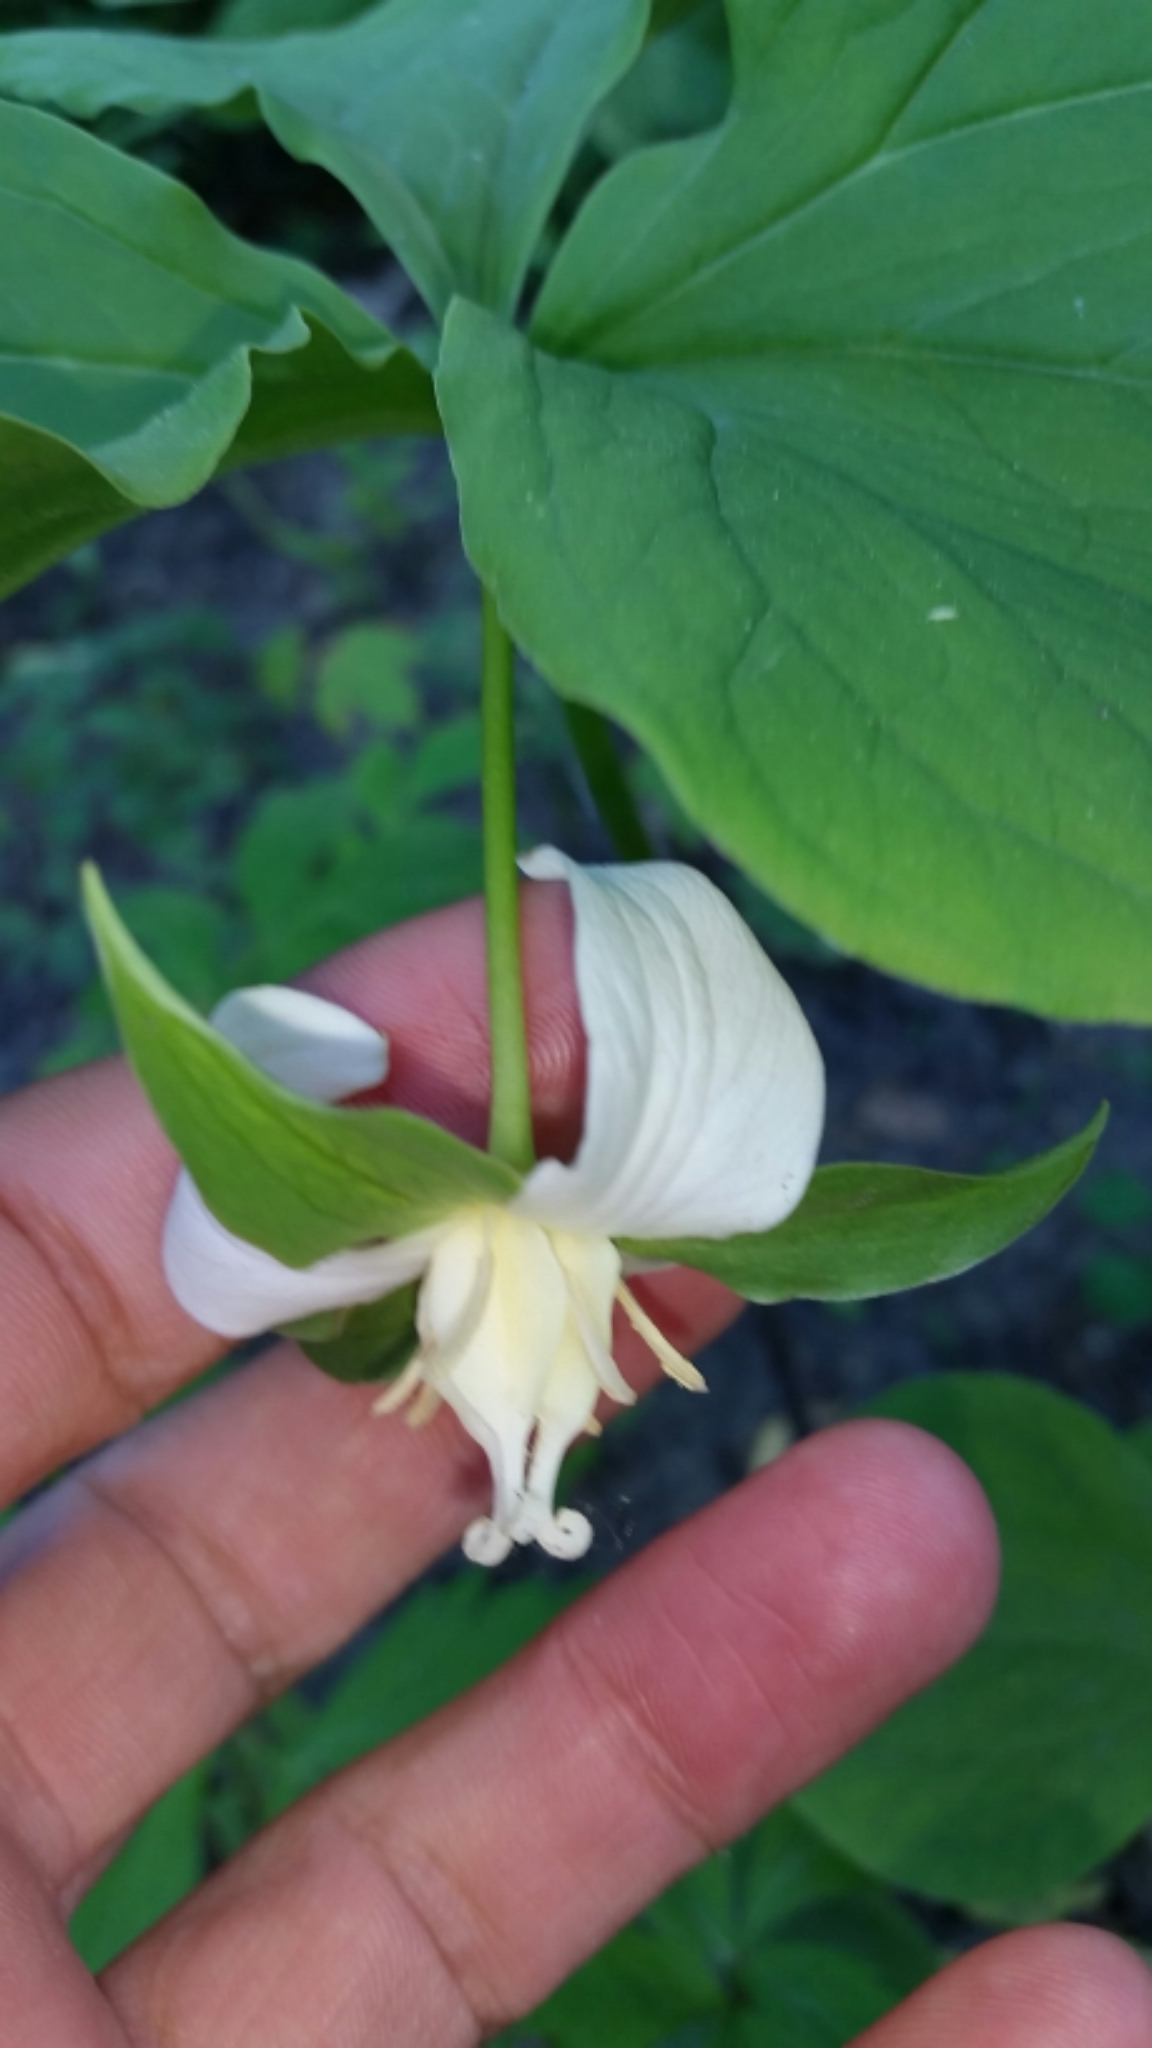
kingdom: Plantae
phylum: Tracheophyta
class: Liliopsida
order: Liliales
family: Melanthiaceae
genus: Trillium
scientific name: Trillium flexipes
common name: Drooping trillium
